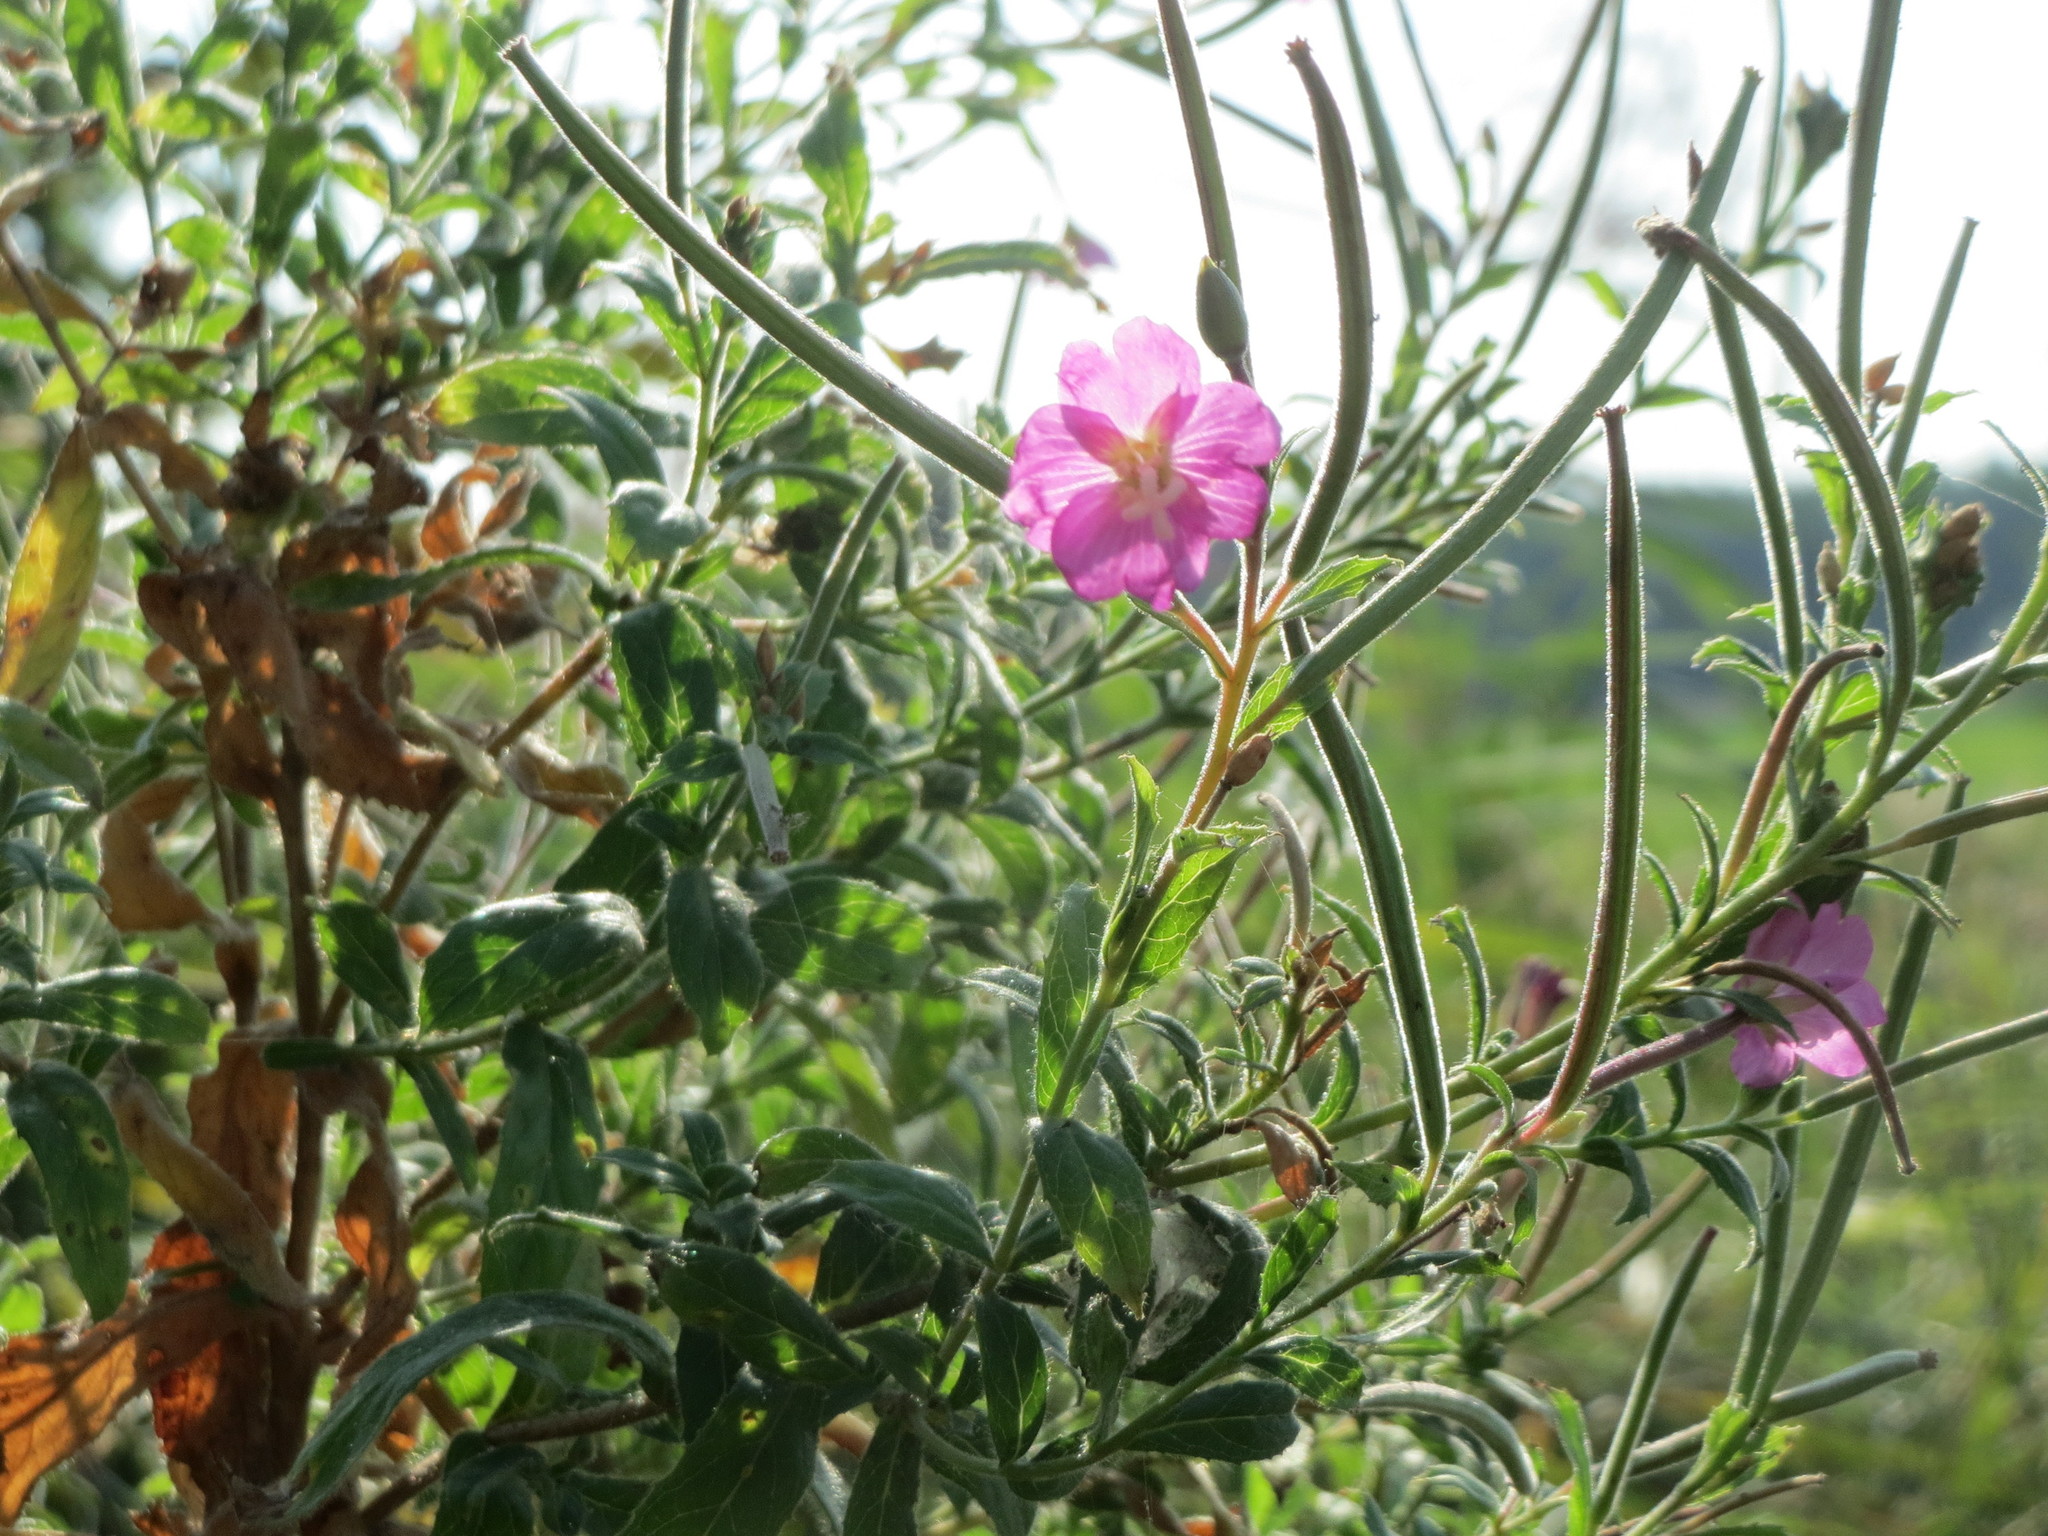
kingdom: Plantae
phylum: Tracheophyta
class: Magnoliopsida
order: Myrtales
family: Onagraceae
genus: Epilobium
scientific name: Epilobium hirsutum
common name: Great willowherb
